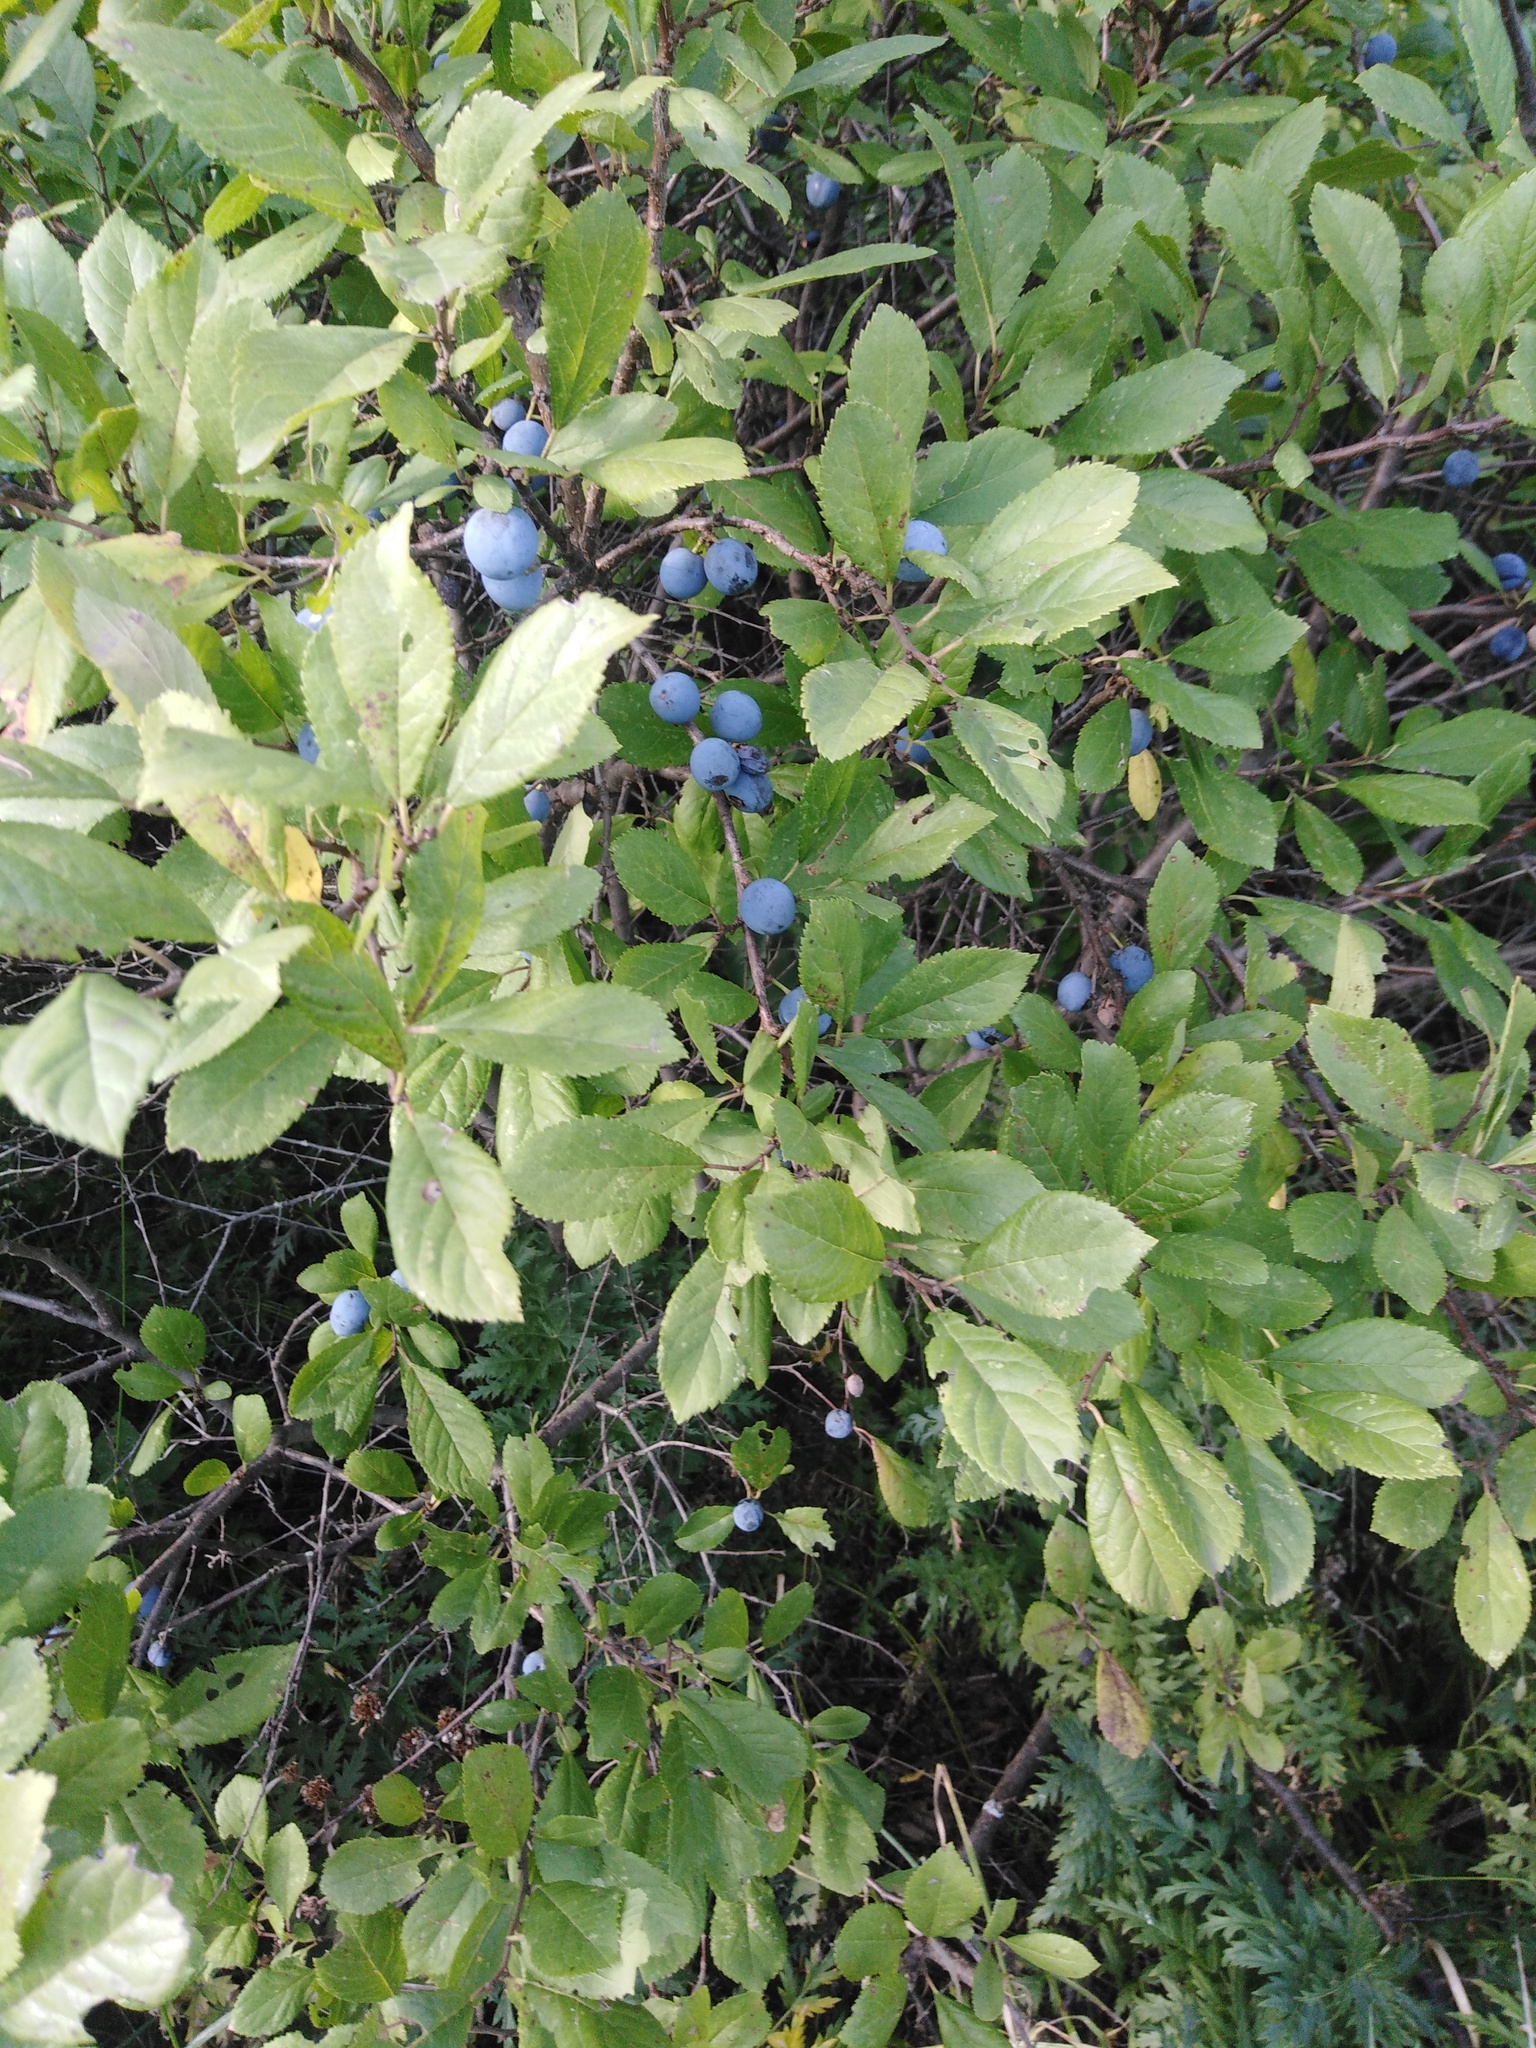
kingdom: Plantae
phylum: Tracheophyta
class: Magnoliopsida
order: Rosales
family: Rosaceae
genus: Prunus
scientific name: Prunus spinosa
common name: Blackthorn
